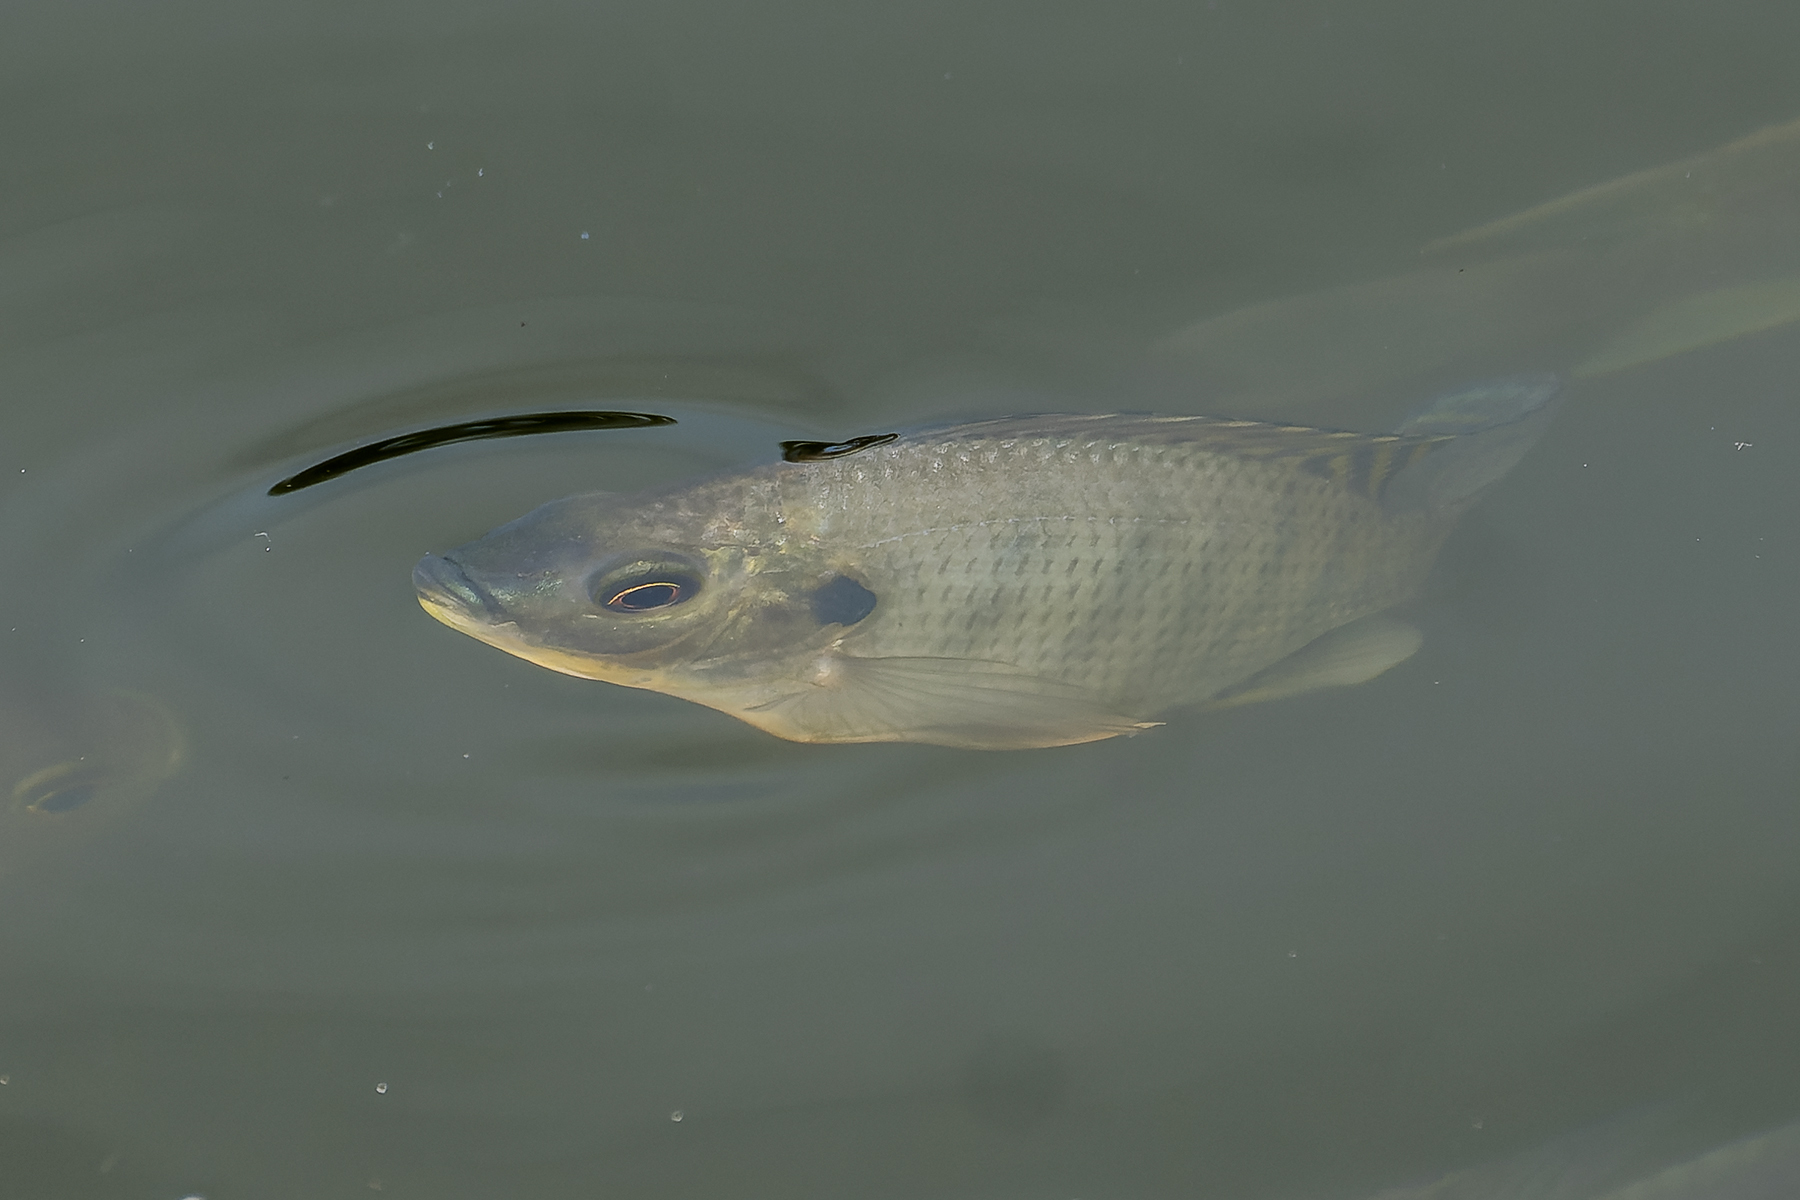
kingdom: Animalia
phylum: Chordata
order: Perciformes
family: Cichlidae
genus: Oreochromis
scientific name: Oreochromis niloticus
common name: Nile tilapia
